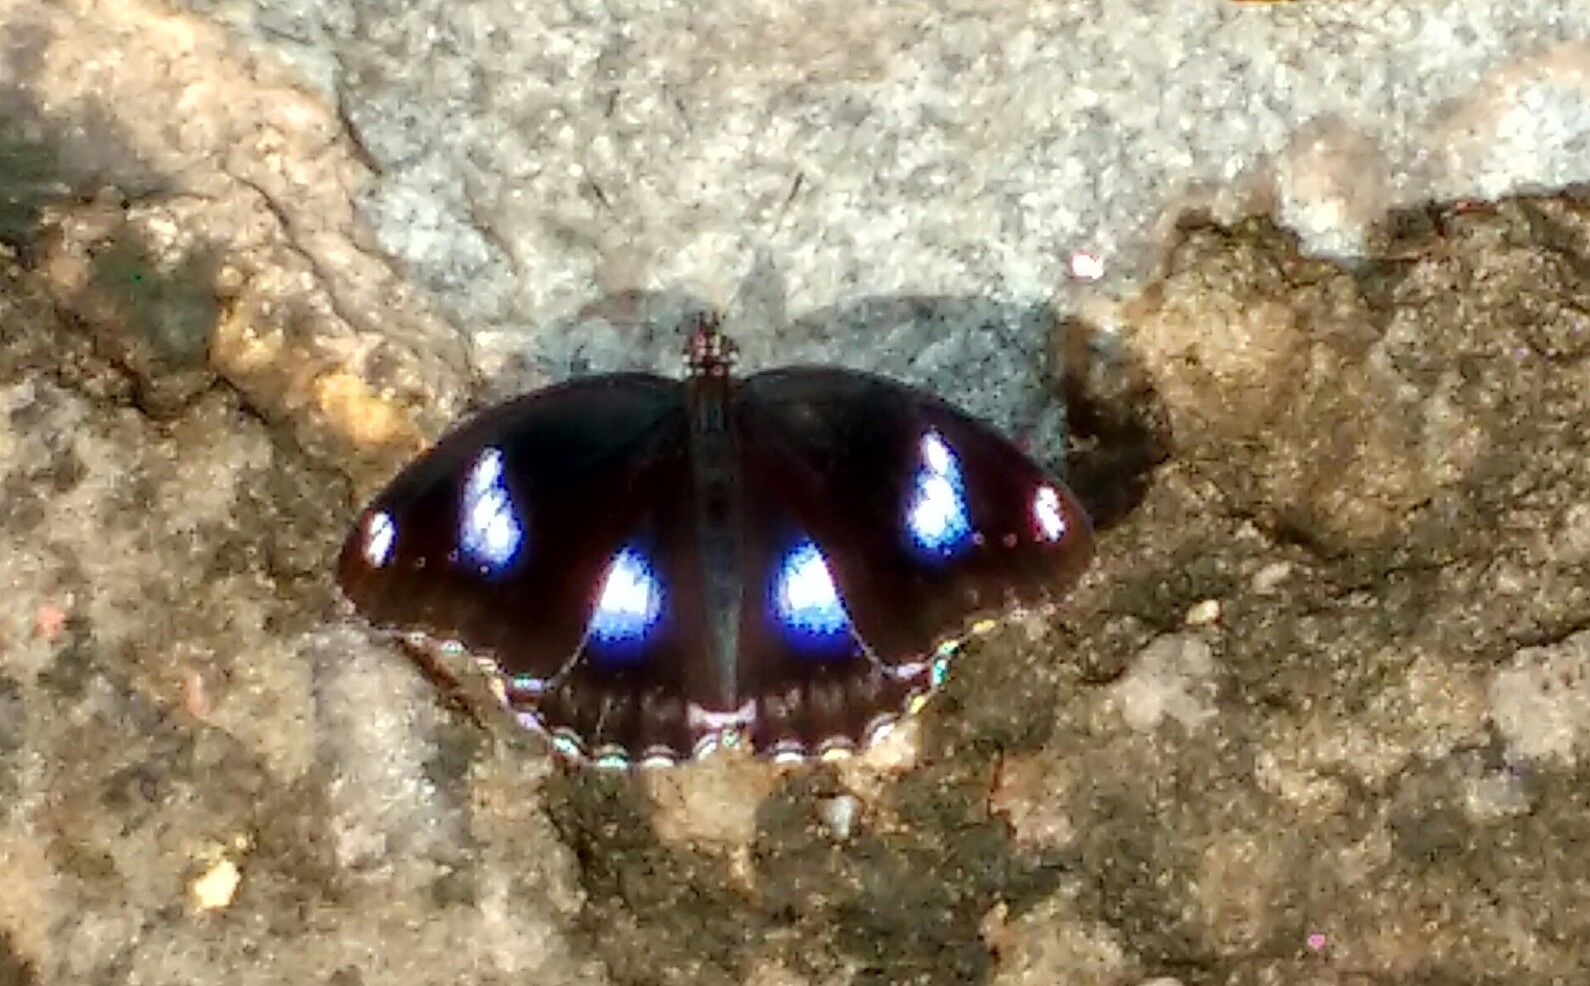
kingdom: Animalia
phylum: Arthropoda
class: Insecta
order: Lepidoptera
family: Nymphalidae
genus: Hypolimnas
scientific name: Hypolimnas bolina
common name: Great eggfly
